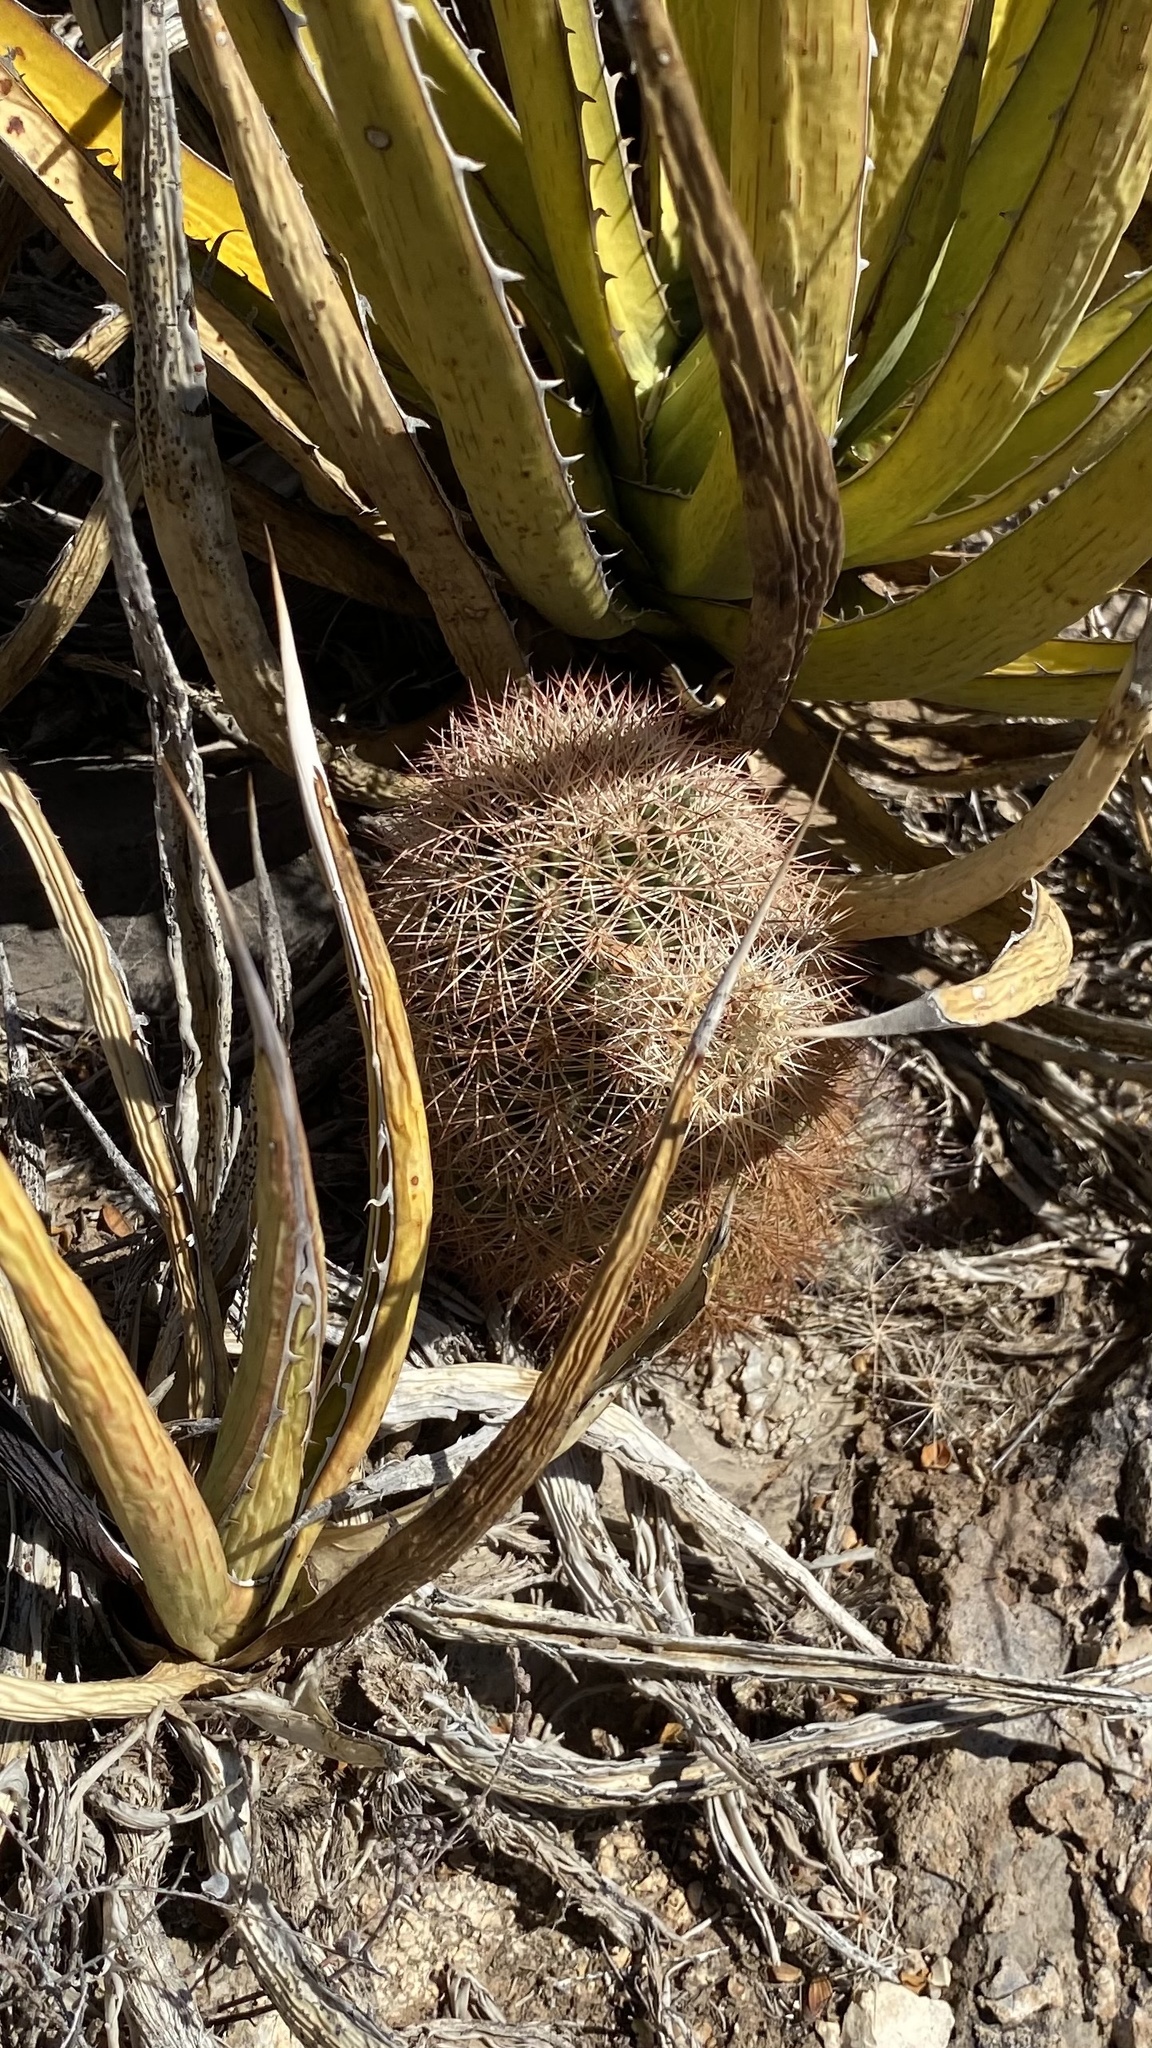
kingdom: Plantae
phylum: Tracheophyta
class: Magnoliopsida
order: Caryophyllales
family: Cactaceae
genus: Echinocereus
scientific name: Echinocereus dasyacanthus
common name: Spiny hedgehog cactus
